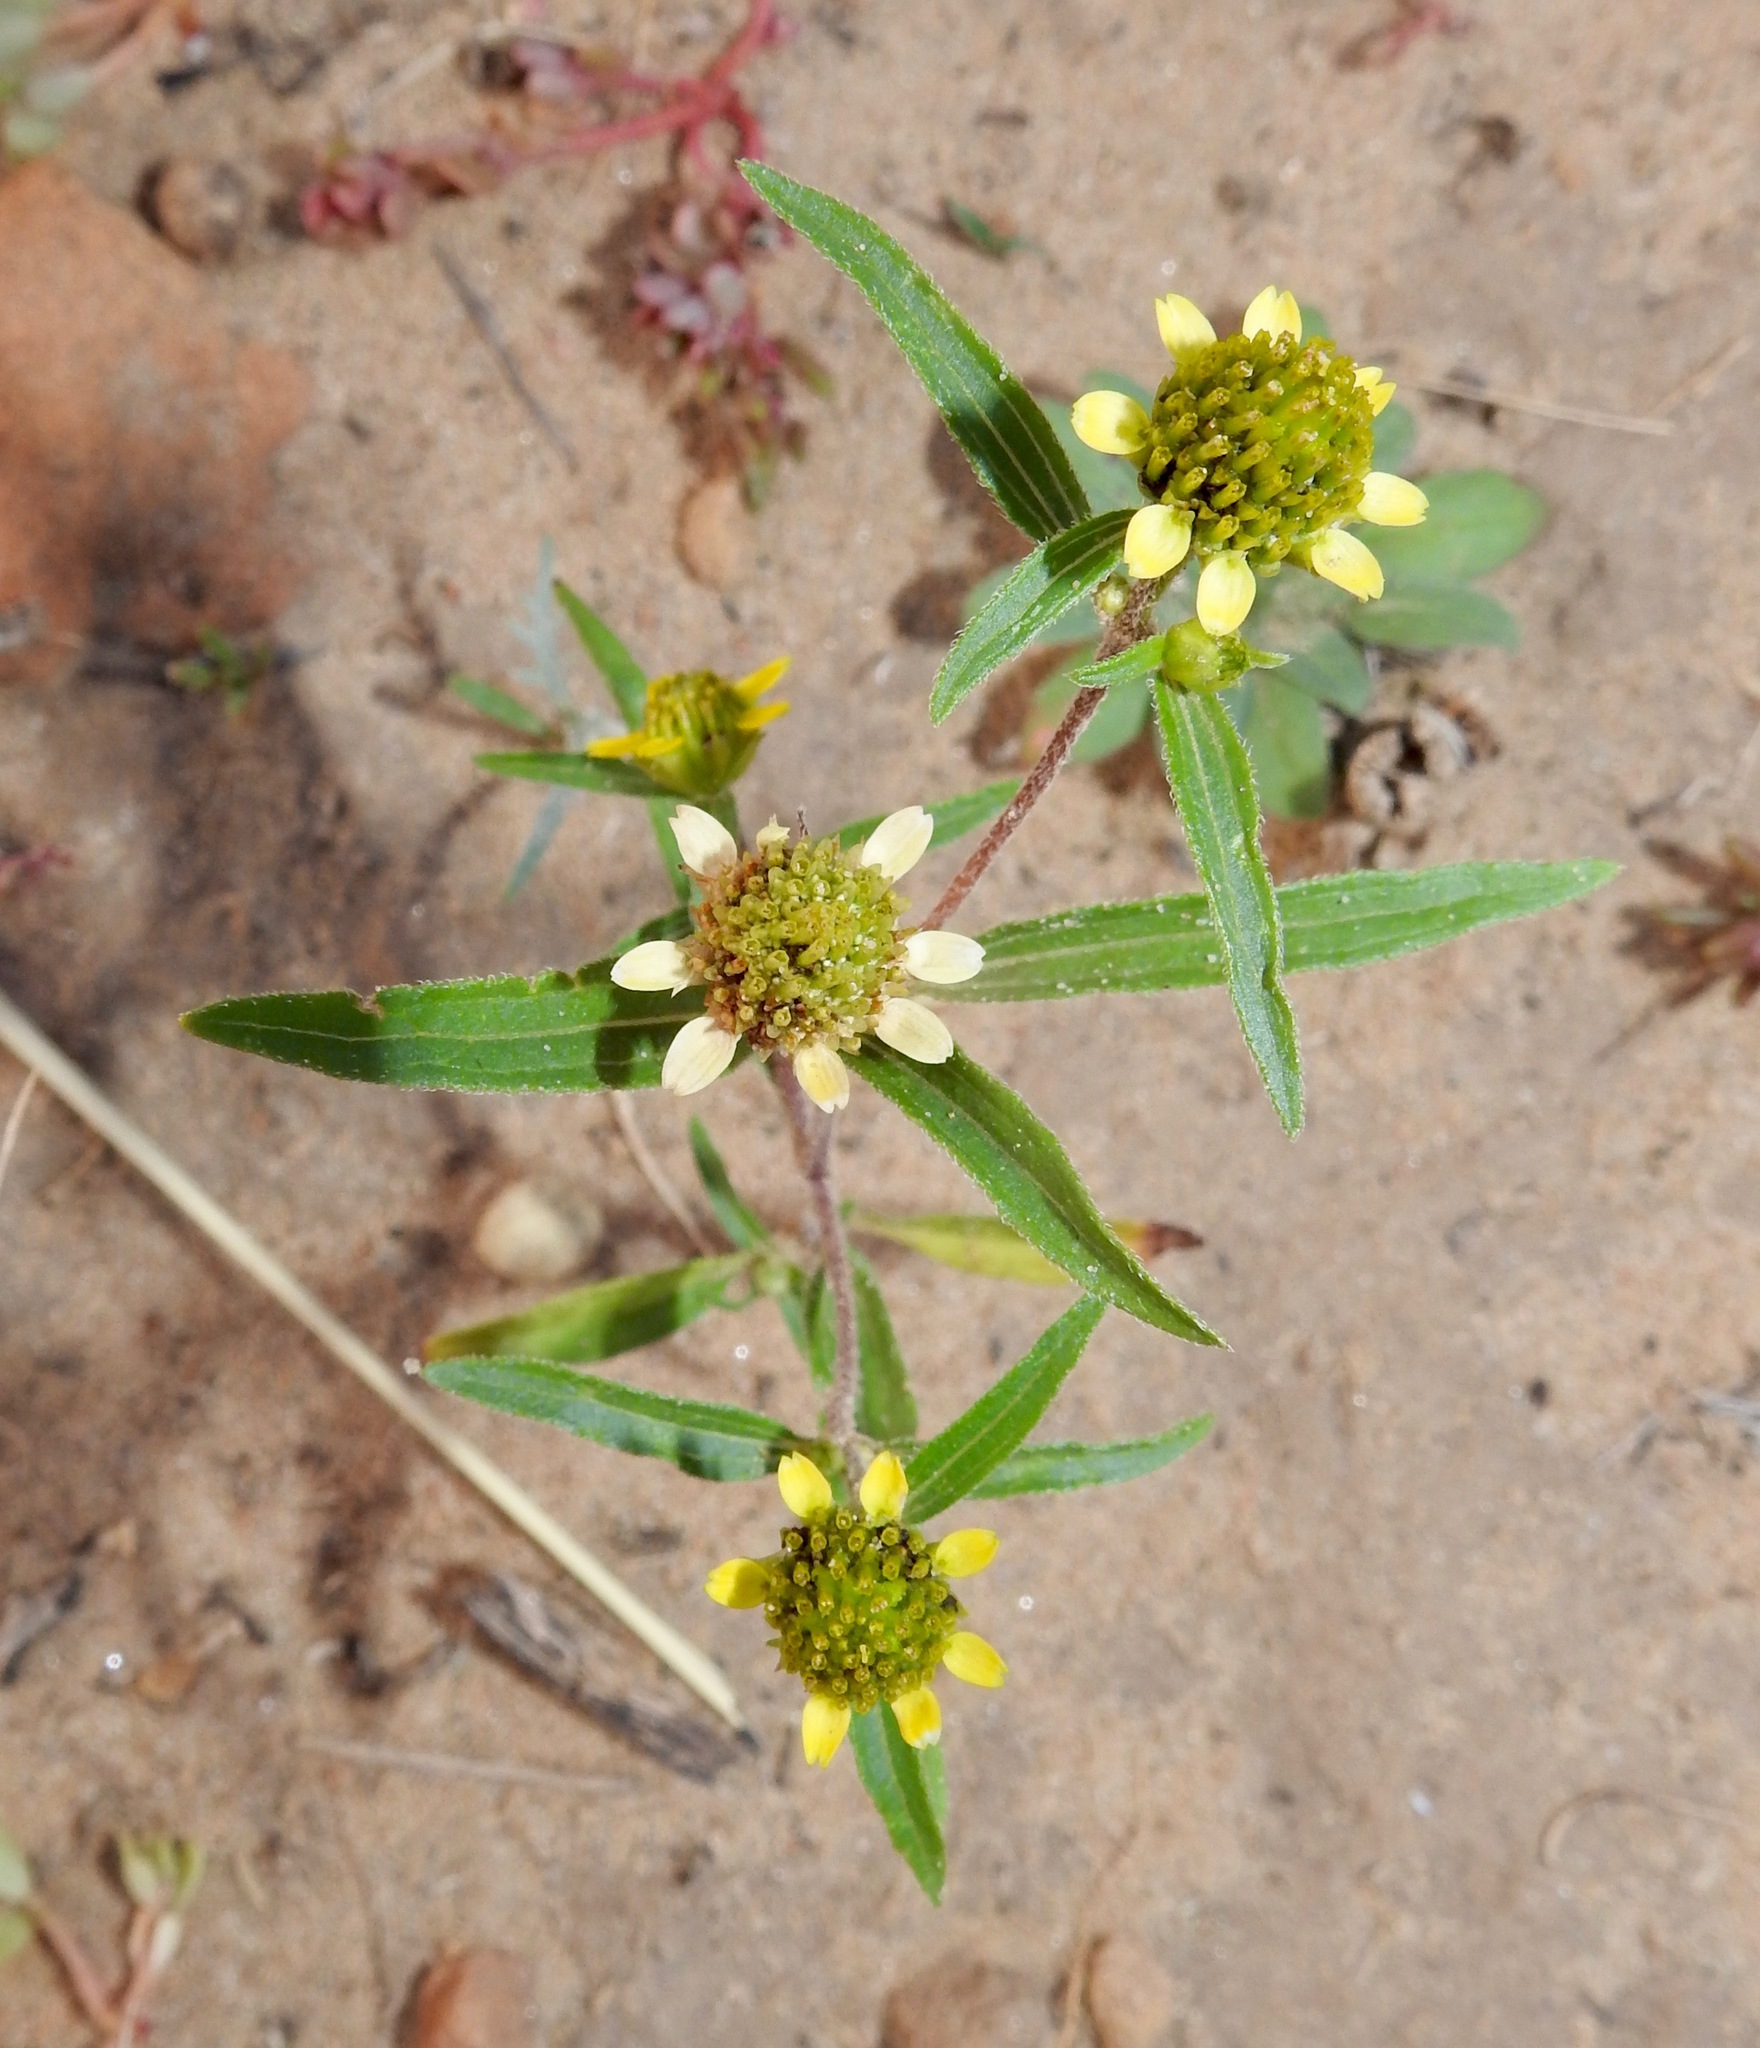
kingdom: Plantae
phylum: Tracheophyta
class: Magnoliopsida
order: Asterales
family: Asteraceae
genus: Sanvitalia
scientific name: Sanvitalia abertii
